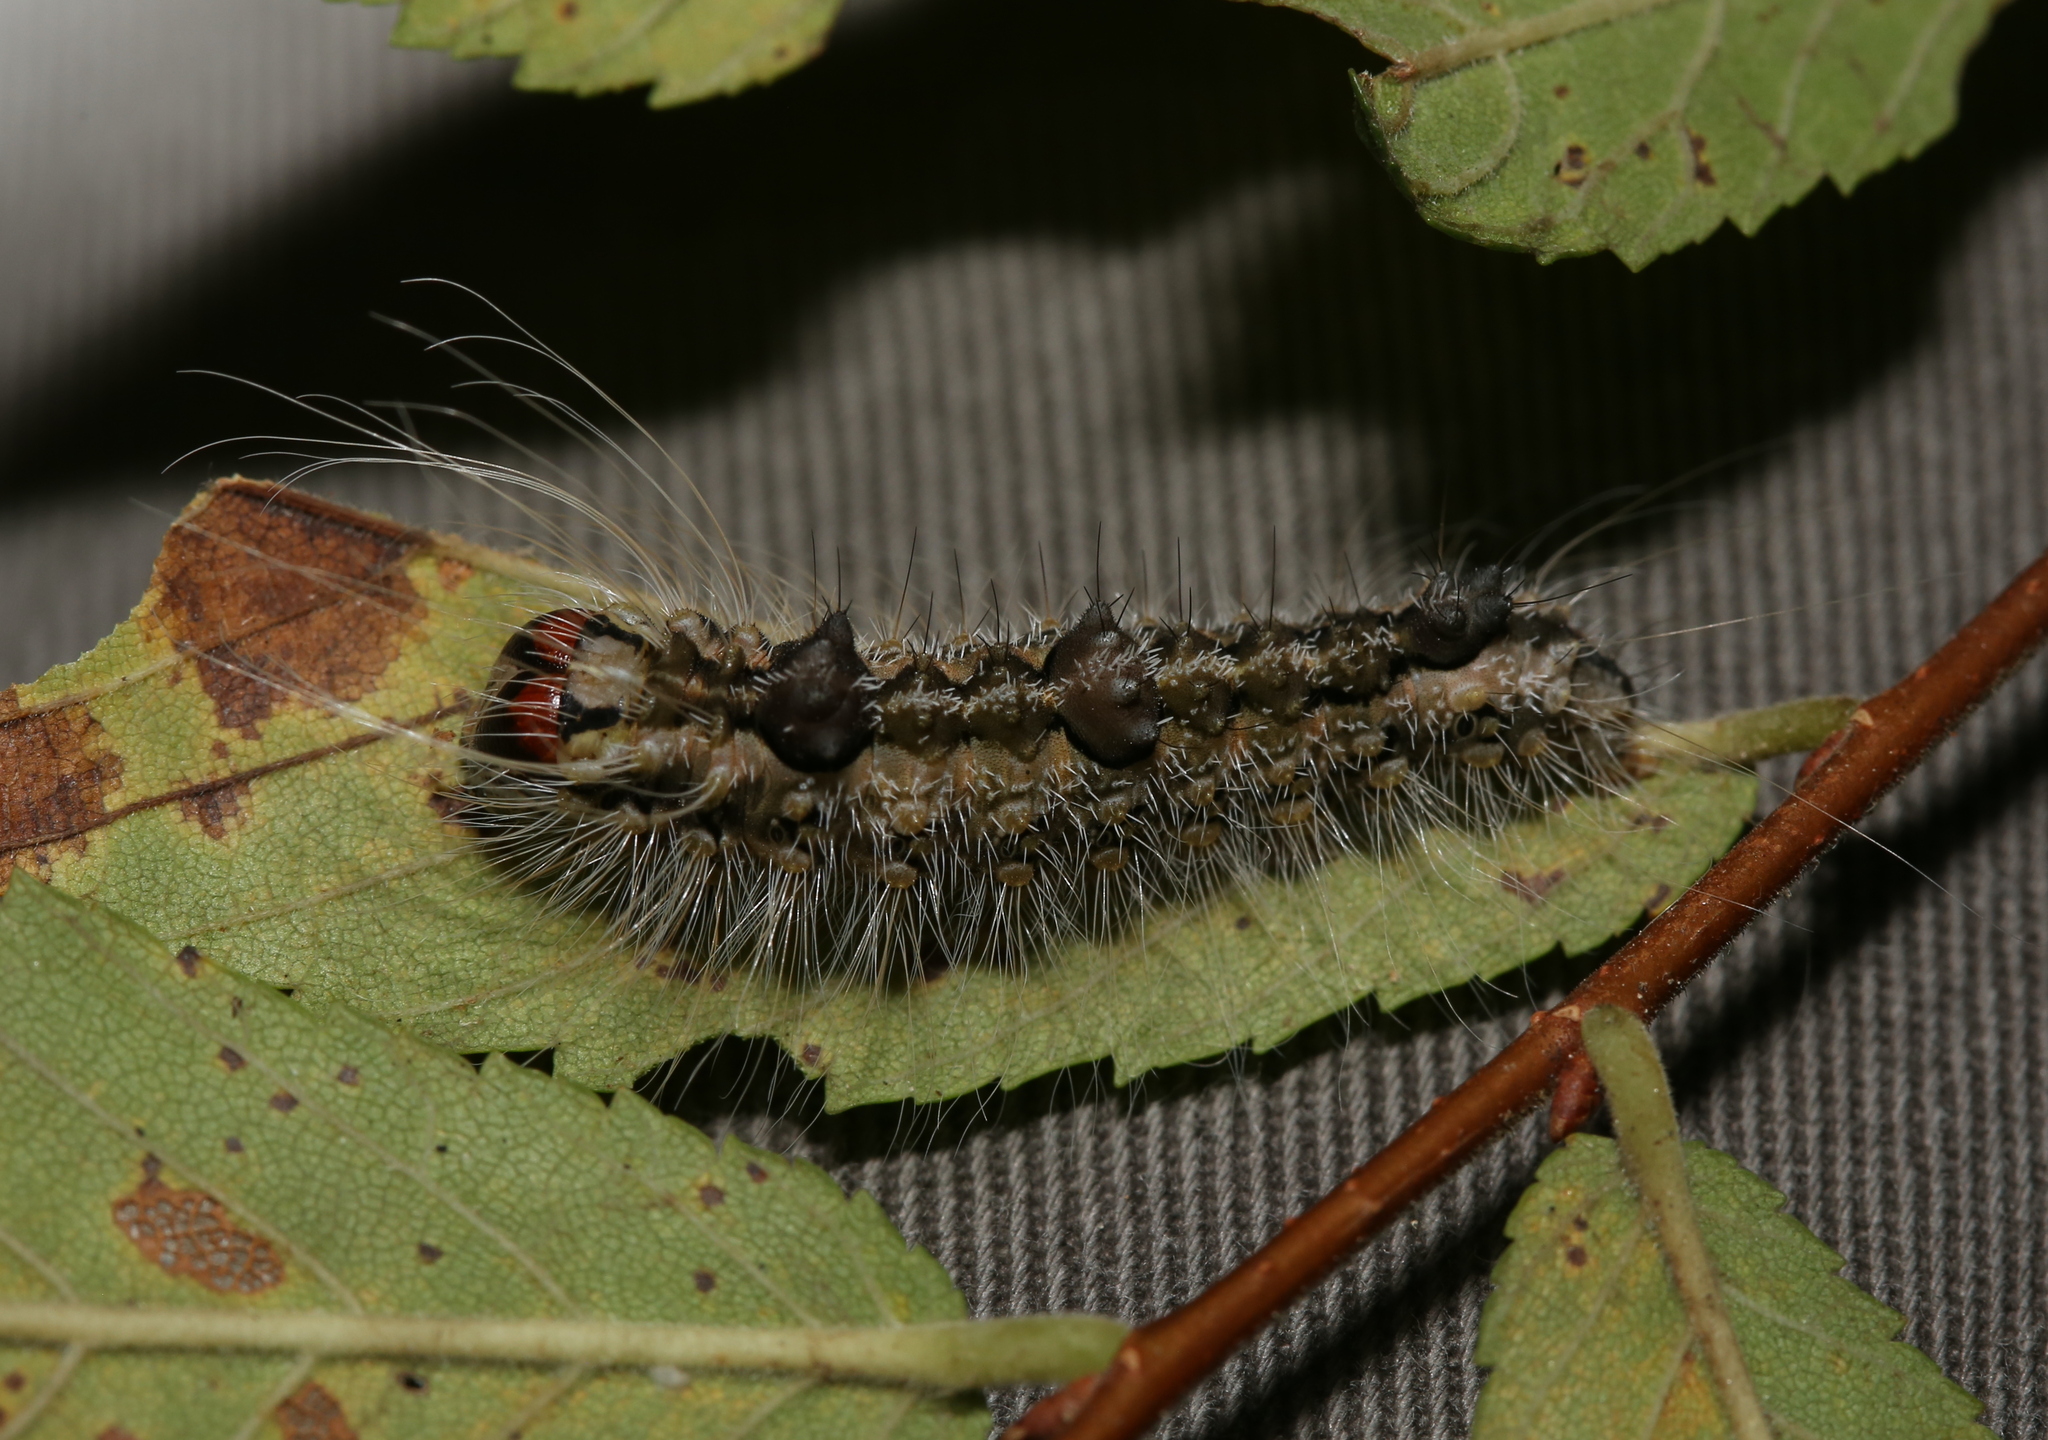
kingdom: Animalia
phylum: Arthropoda
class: Insecta
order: Lepidoptera
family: Noctuidae
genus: Acronicta
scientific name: Acronicta morula
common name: Ochre dagger
